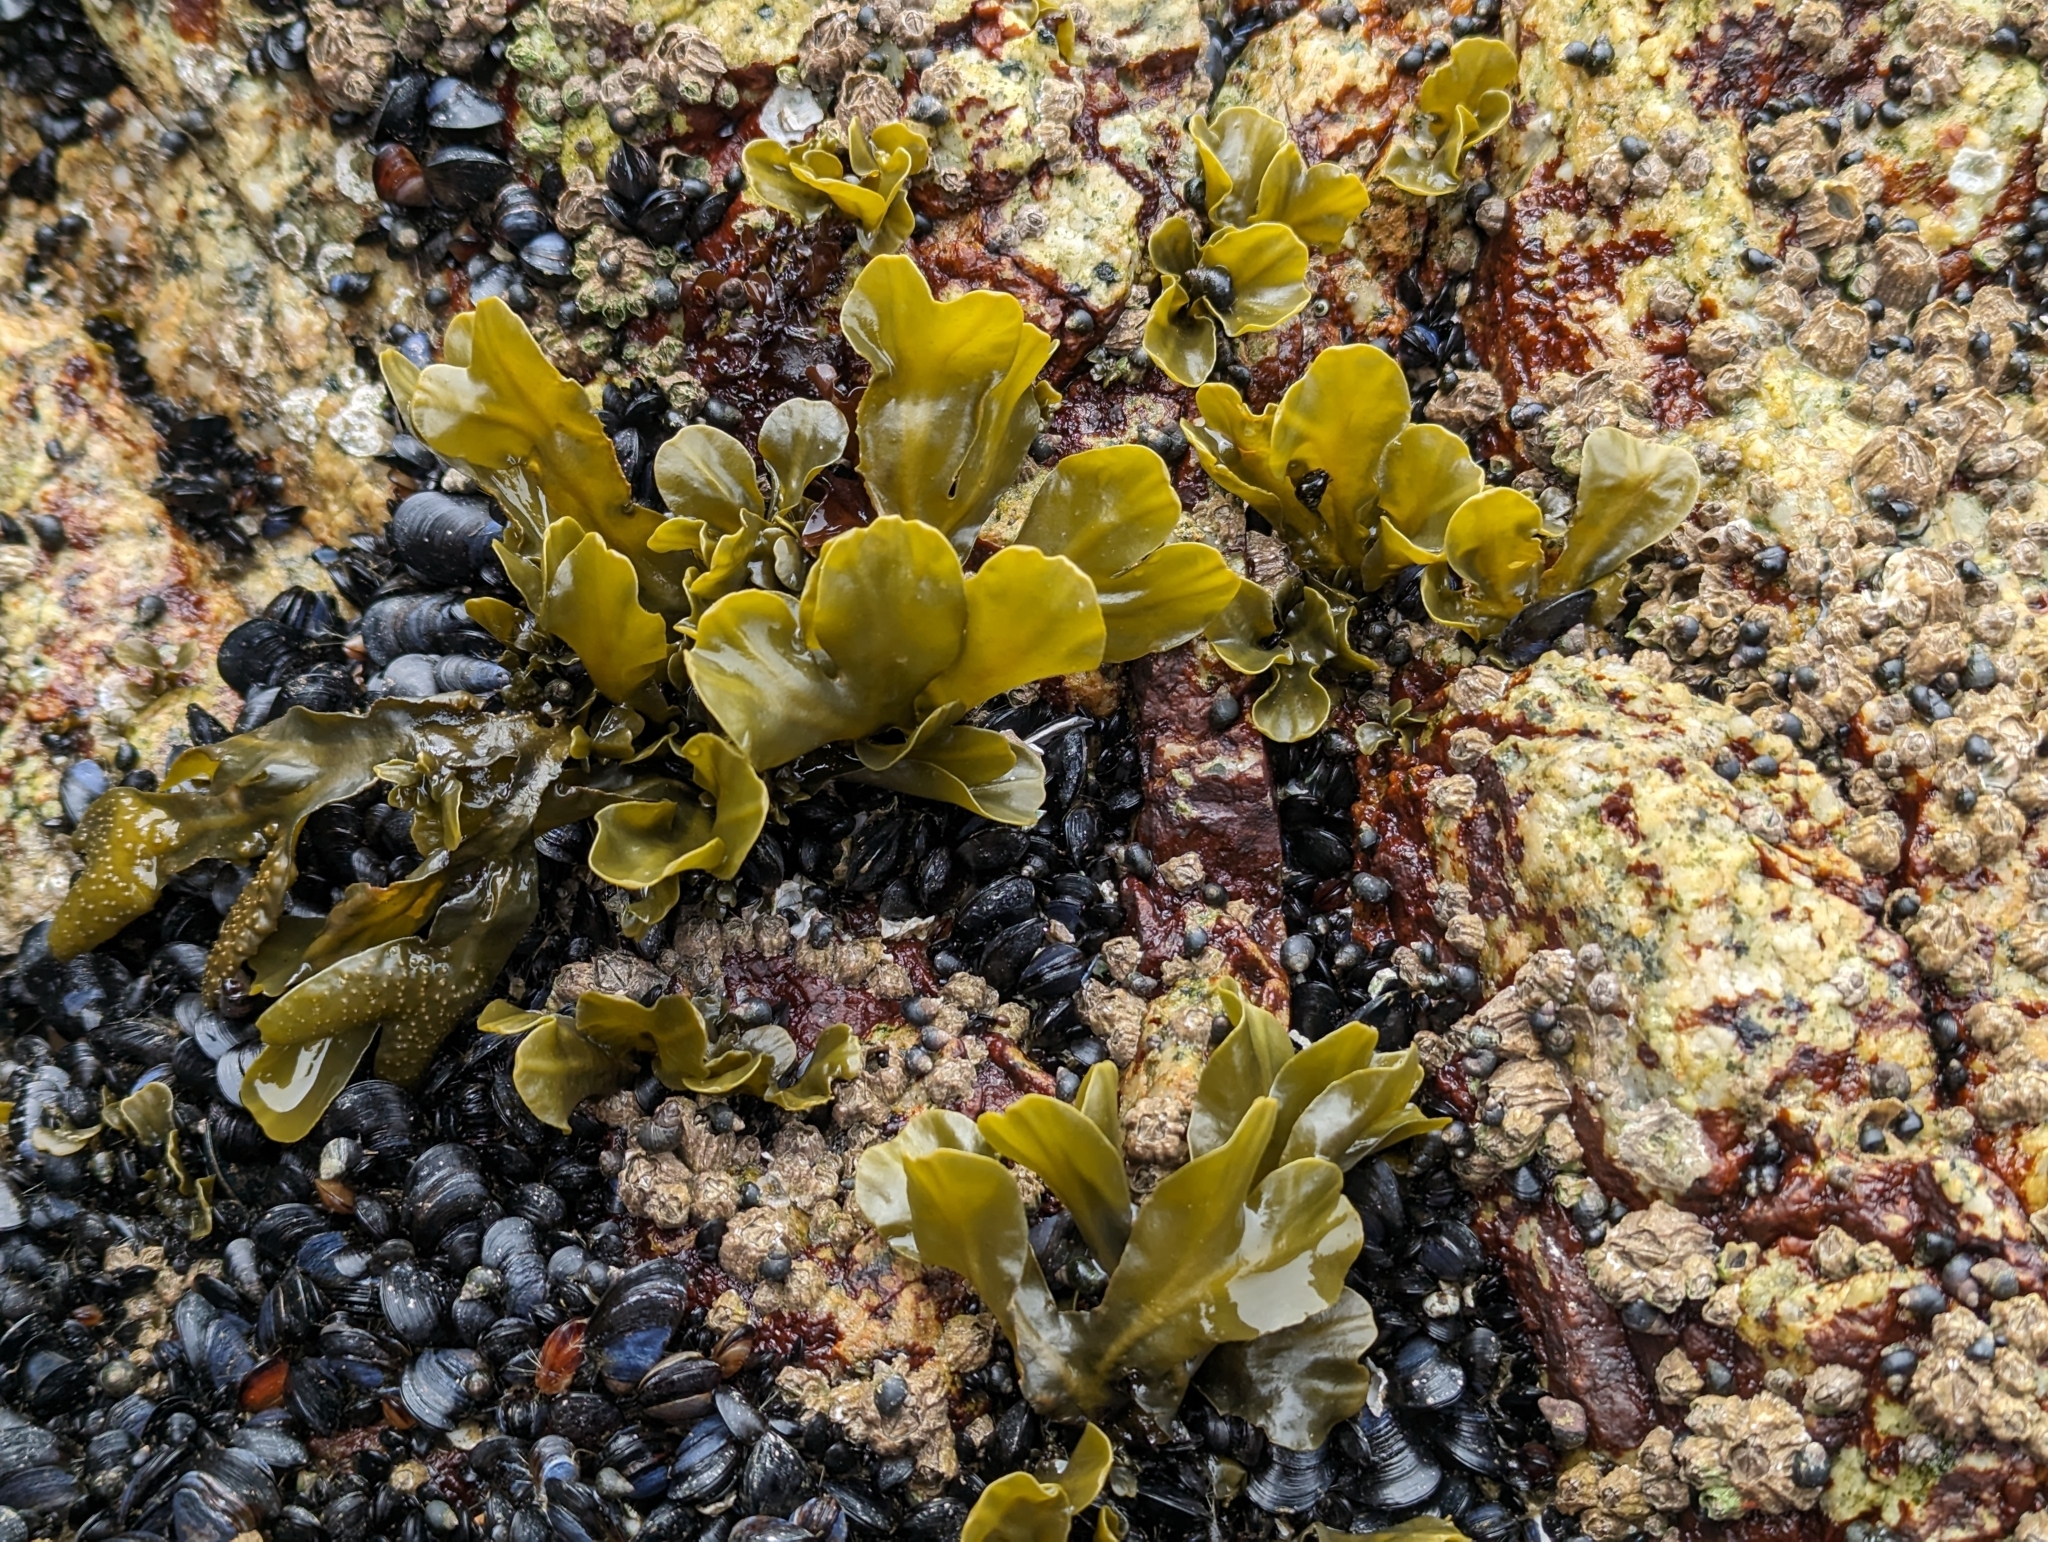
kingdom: Chromista
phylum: Ochrophyta
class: Phaeophyceae
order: Fucales
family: Fucaceae
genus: Fucus
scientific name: Fucus distichus
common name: Rockweed
